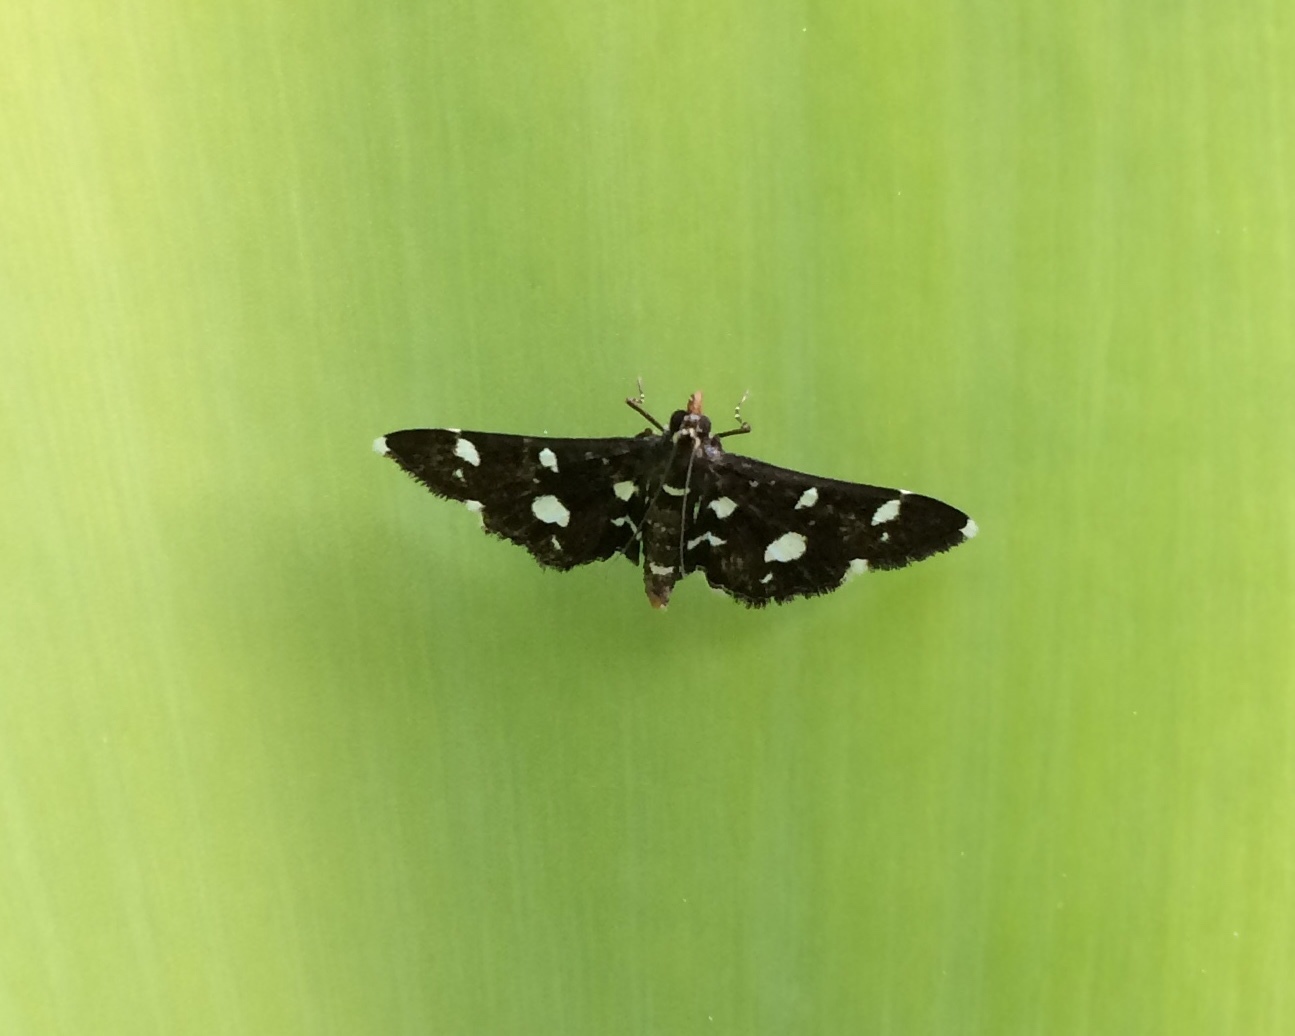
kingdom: Animalia
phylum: Arthropoda
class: Insecta
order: Lepidoptera
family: Crambidae
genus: Bocchoris
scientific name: Bocchoris inspersalis
